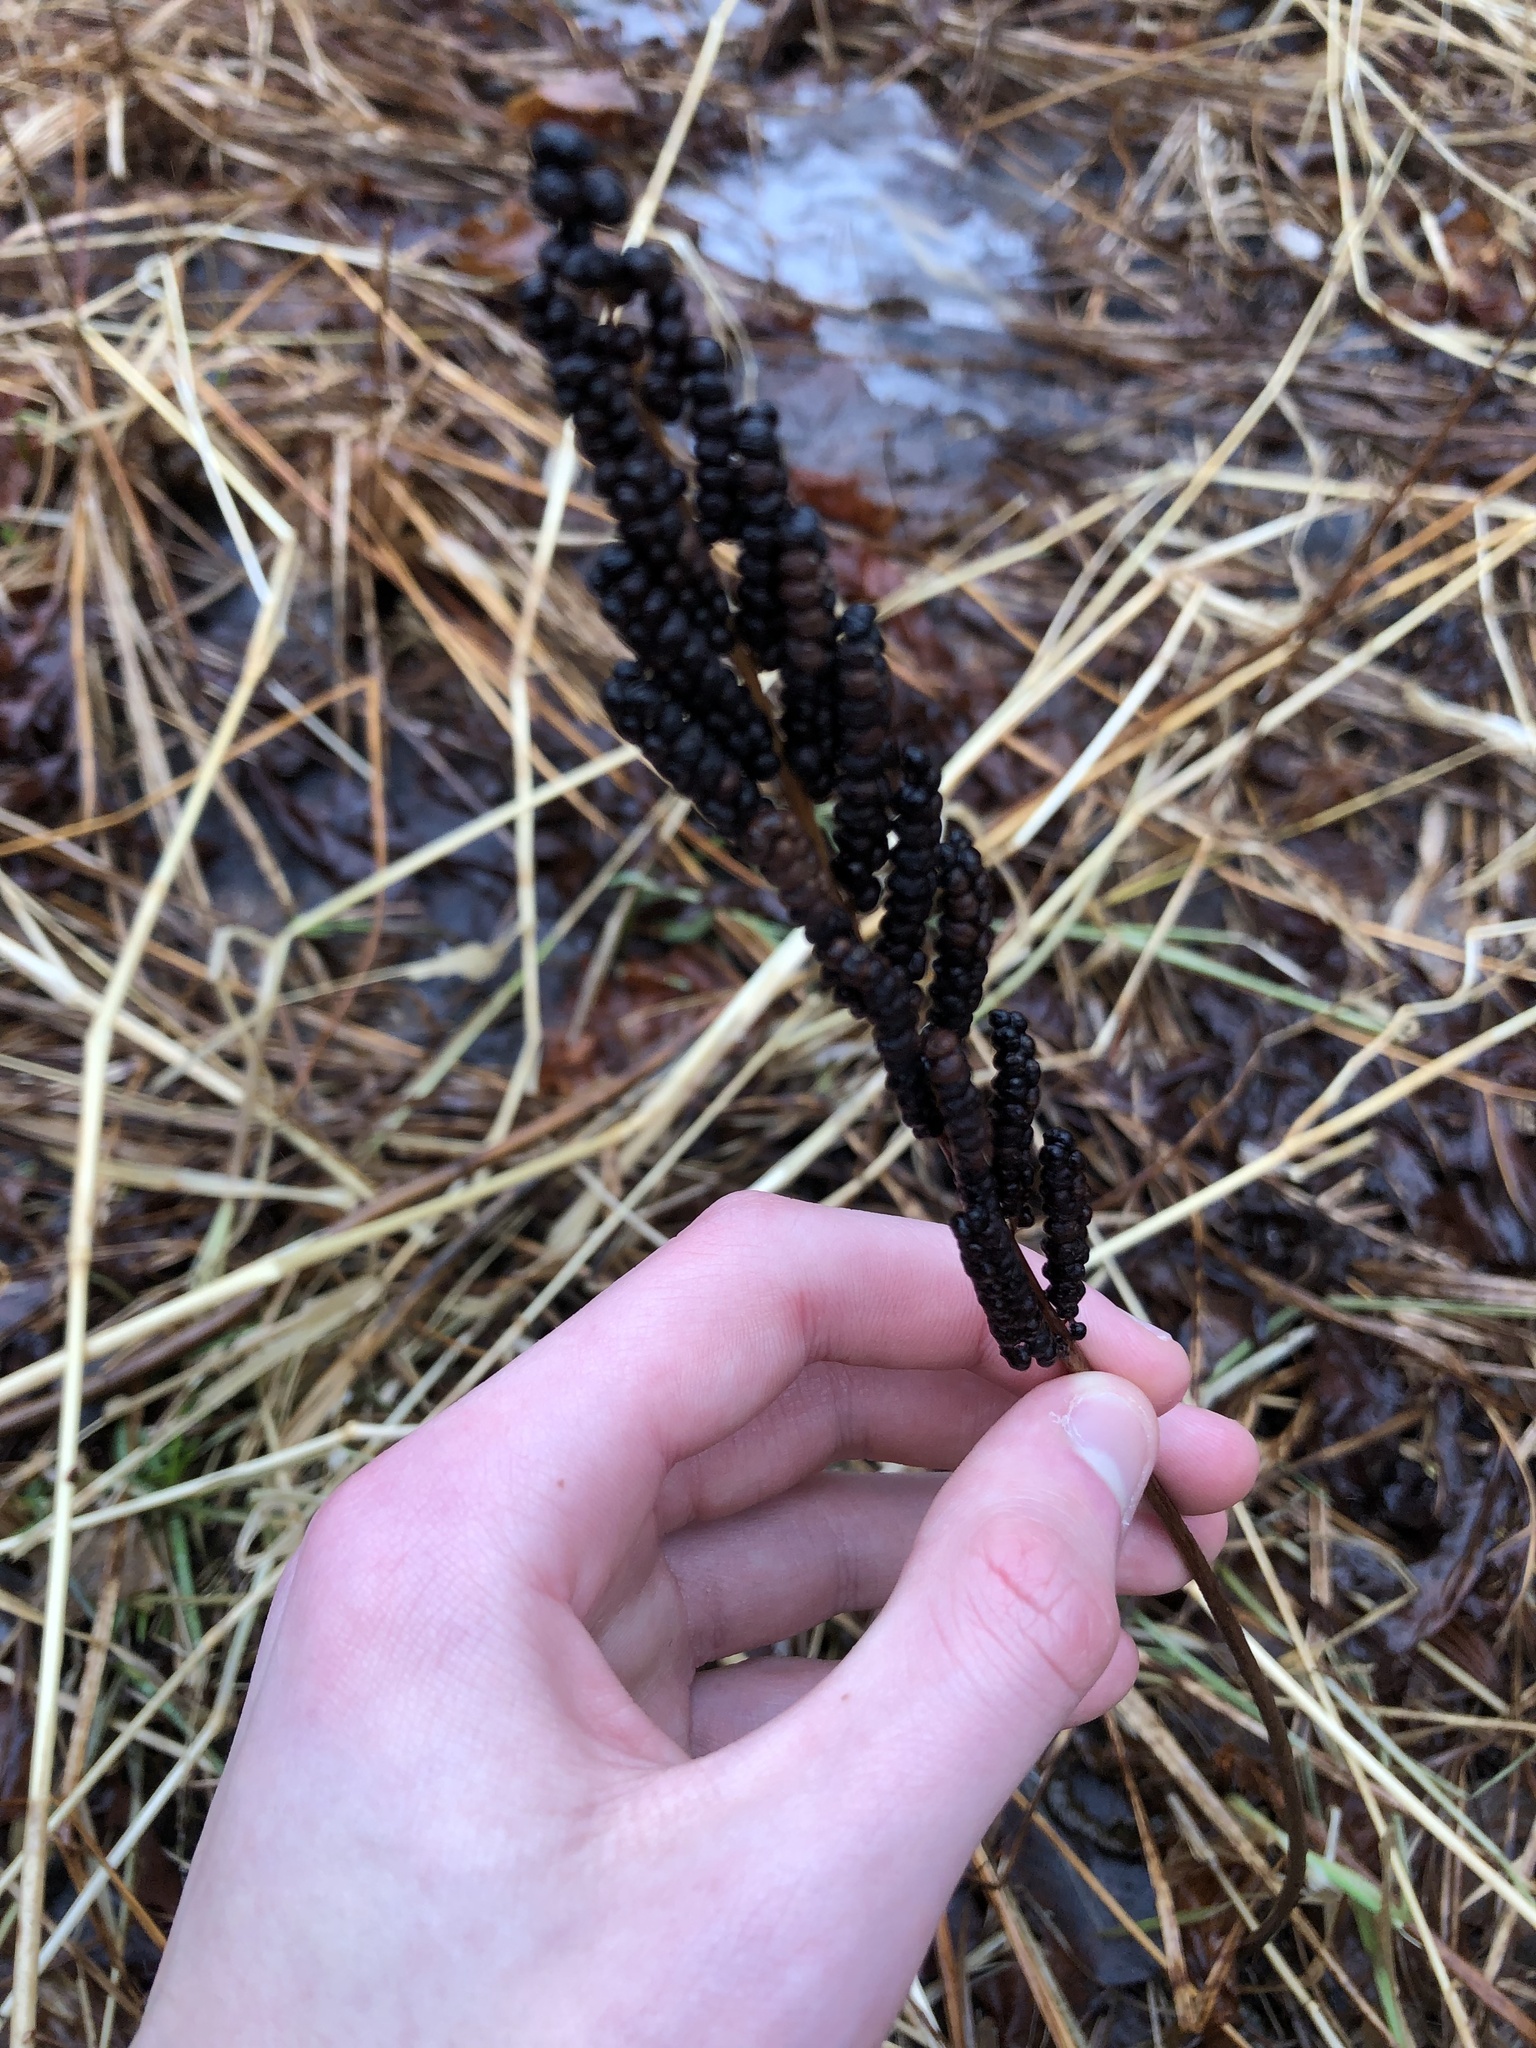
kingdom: Plantae
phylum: Tracheophyta
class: Polypodiopsida
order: Polypodiales
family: Onocleaceae
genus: Onoclea
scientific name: Onoclea sensibilis
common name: Sensitive fern
